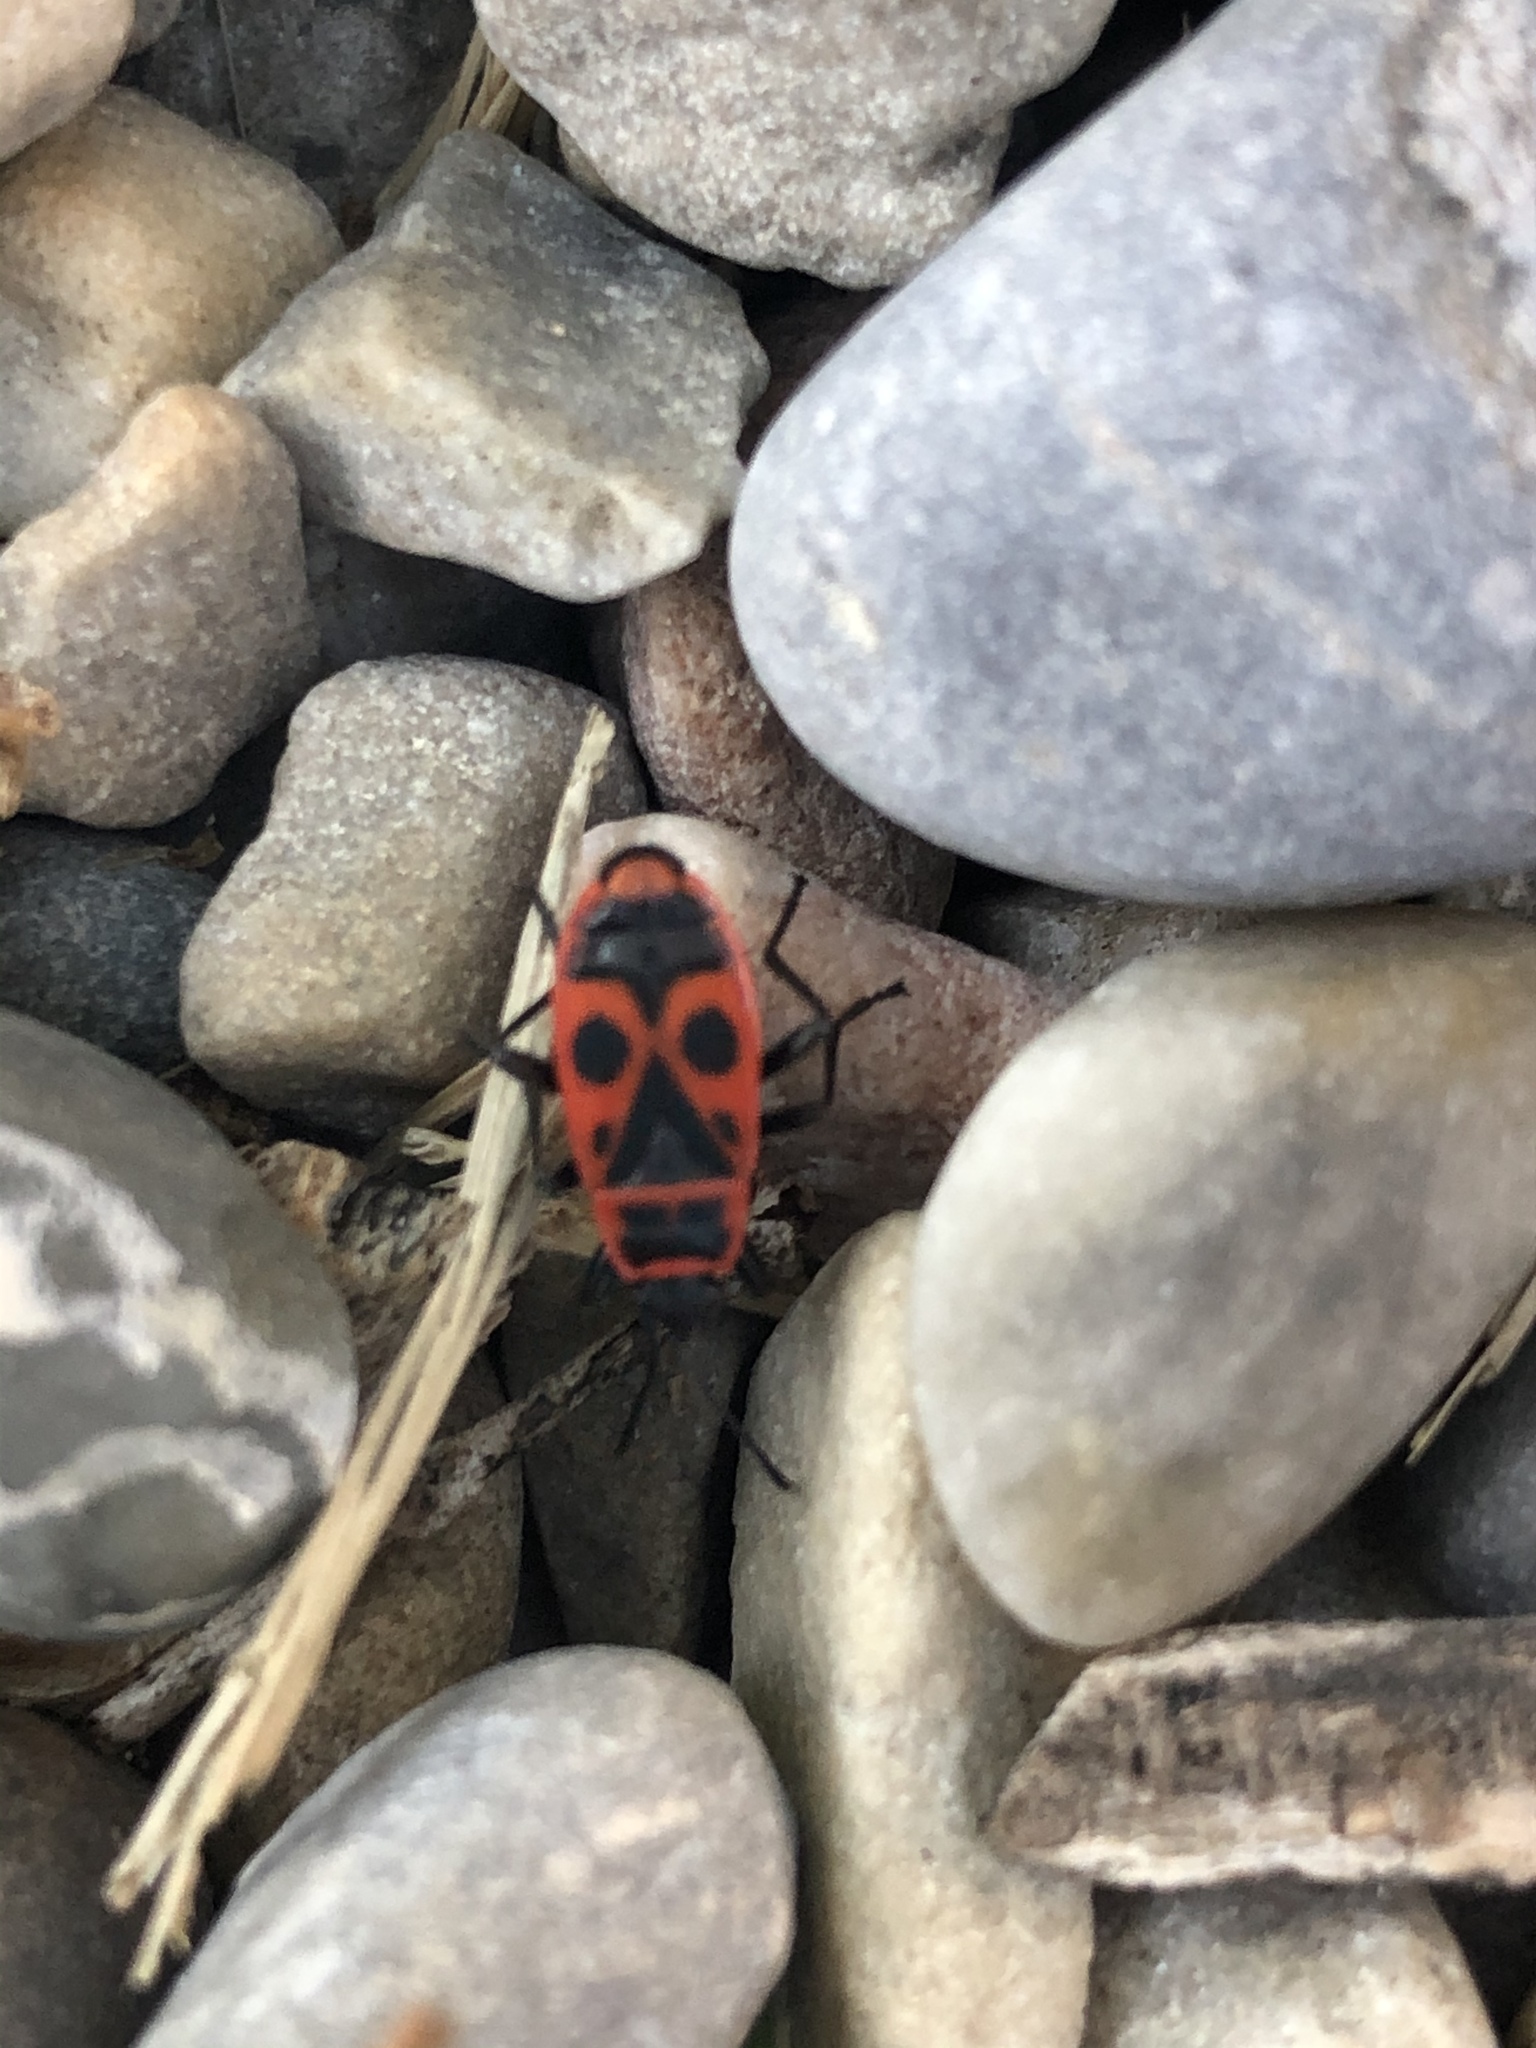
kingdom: Animalia
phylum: Arthropoda
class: Insecta
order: Hemiptera
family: Pyrrhocoridae
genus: Pyrrhocoris
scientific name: Pyrrhocoris apterus
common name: Firebug
